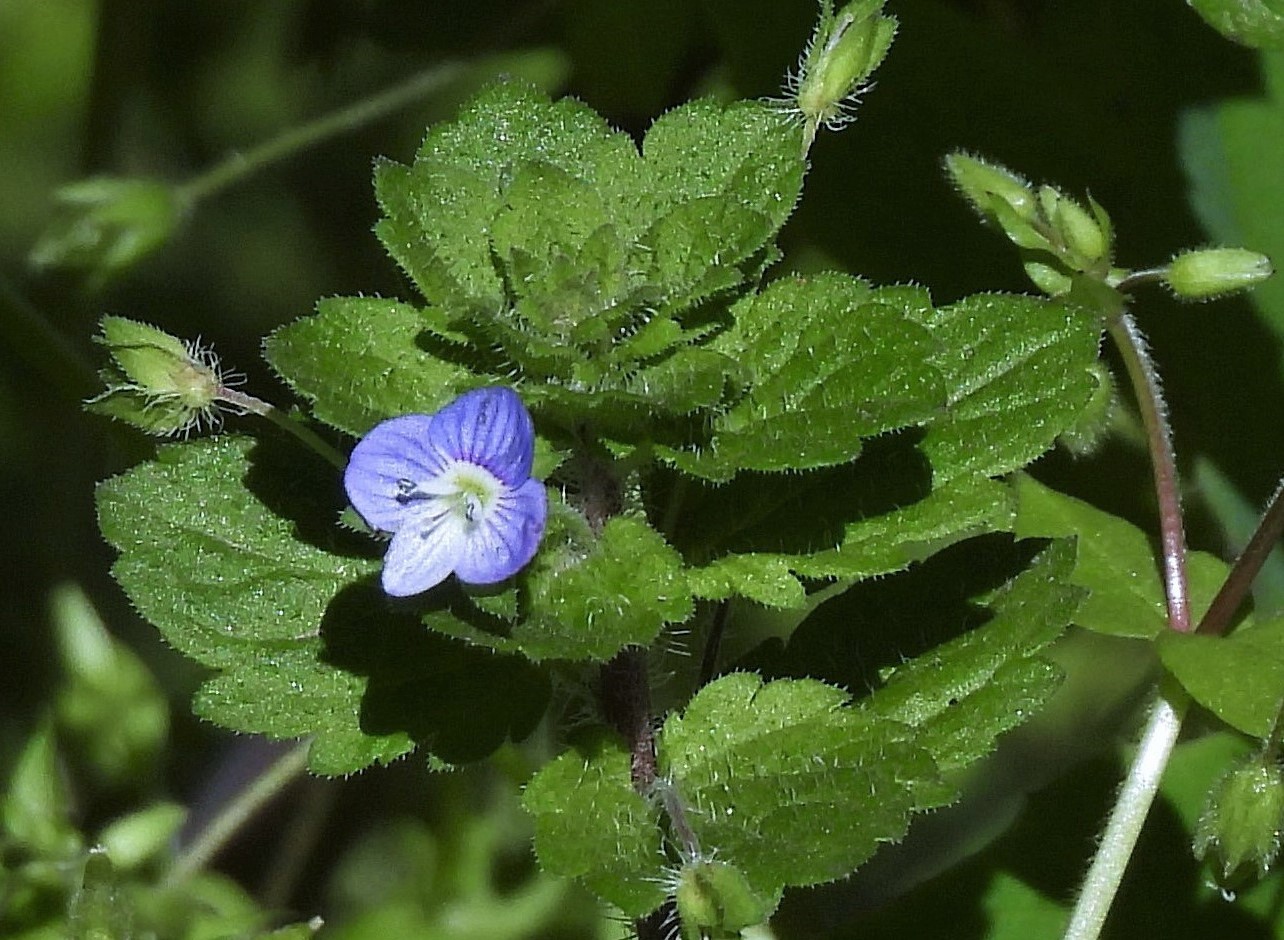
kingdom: Plantae
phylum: Tracheophyta
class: Magnoliopsida
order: Lamiales
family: Plantaginaceae
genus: Veronica
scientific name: Veronica persica
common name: Common field-speedwell
